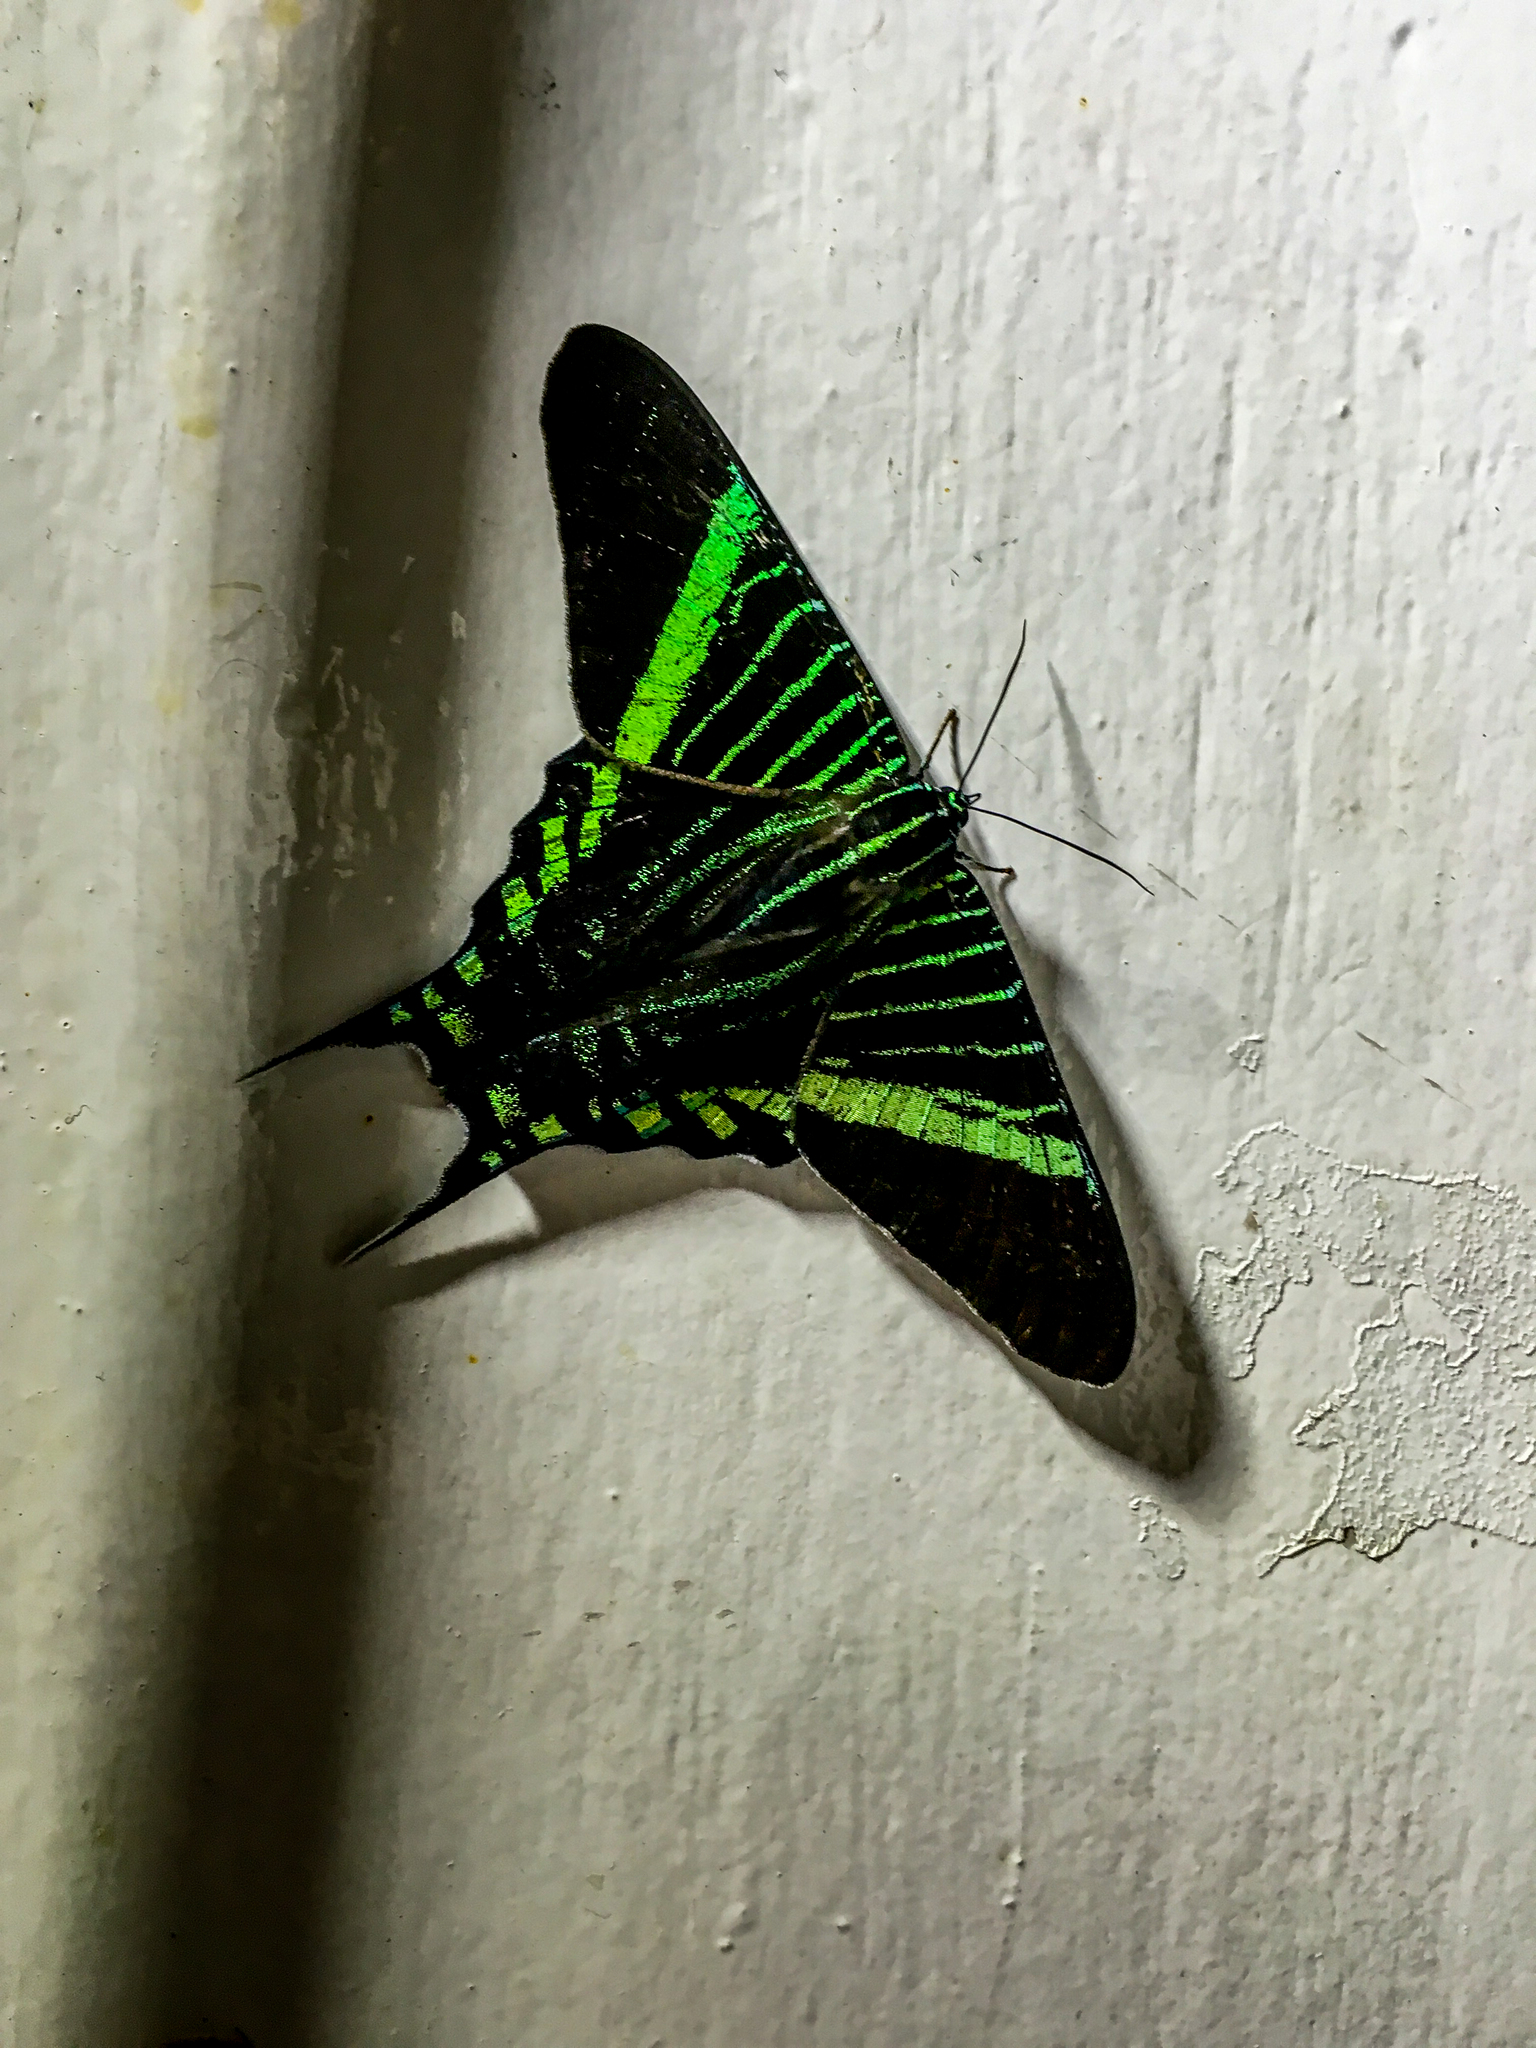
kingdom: Animalia
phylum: Arthropoda
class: Insecta
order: Lepidoptera
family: Uraniidae
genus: Urania
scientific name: Urania fulgens
